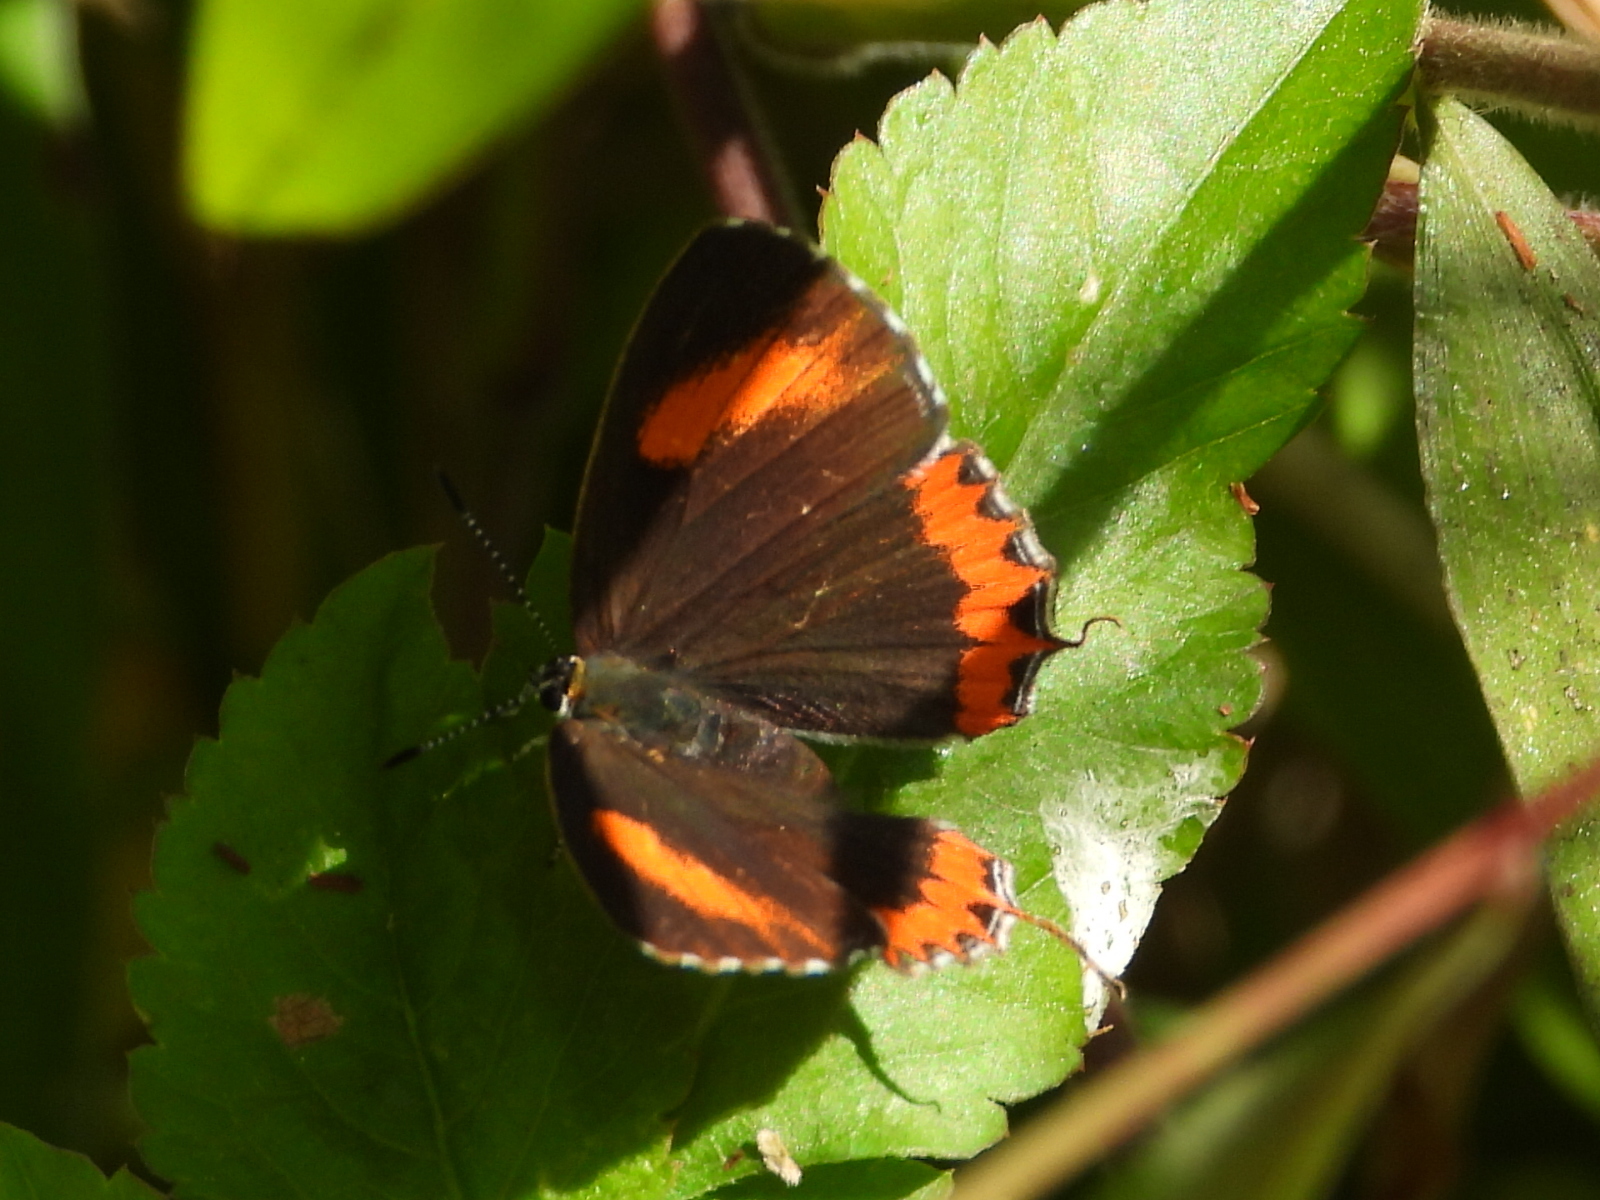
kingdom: Animalia
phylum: Arthropoda
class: Insecta
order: Lepidoptera
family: Lycaenidae
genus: Heliophorus
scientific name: Heliophorus epicles
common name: Purple sapphire
